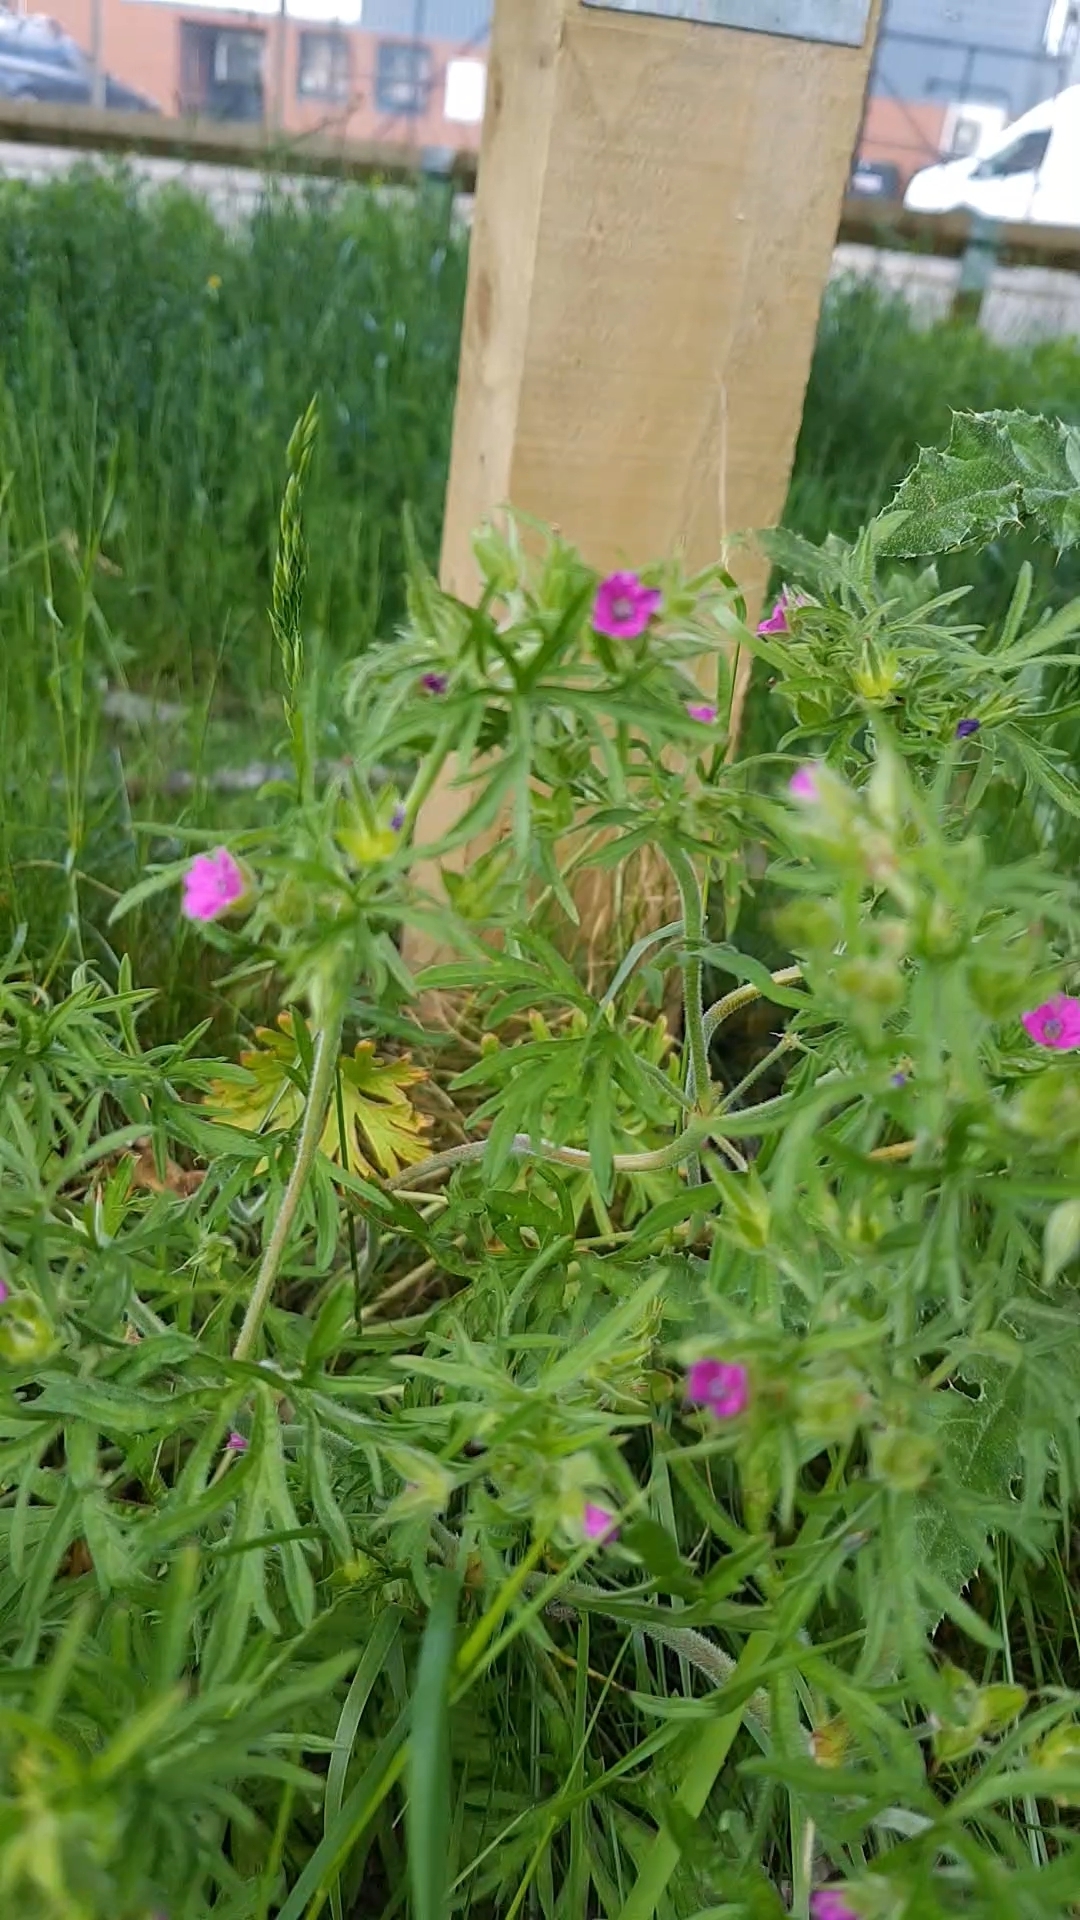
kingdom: Plantae
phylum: Tracheophyta
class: Magnoliopsida
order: Geraniales
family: Geraniaceae
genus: Geranium
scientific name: Geranium dissectum
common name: Cut-leaved crane's-bill
